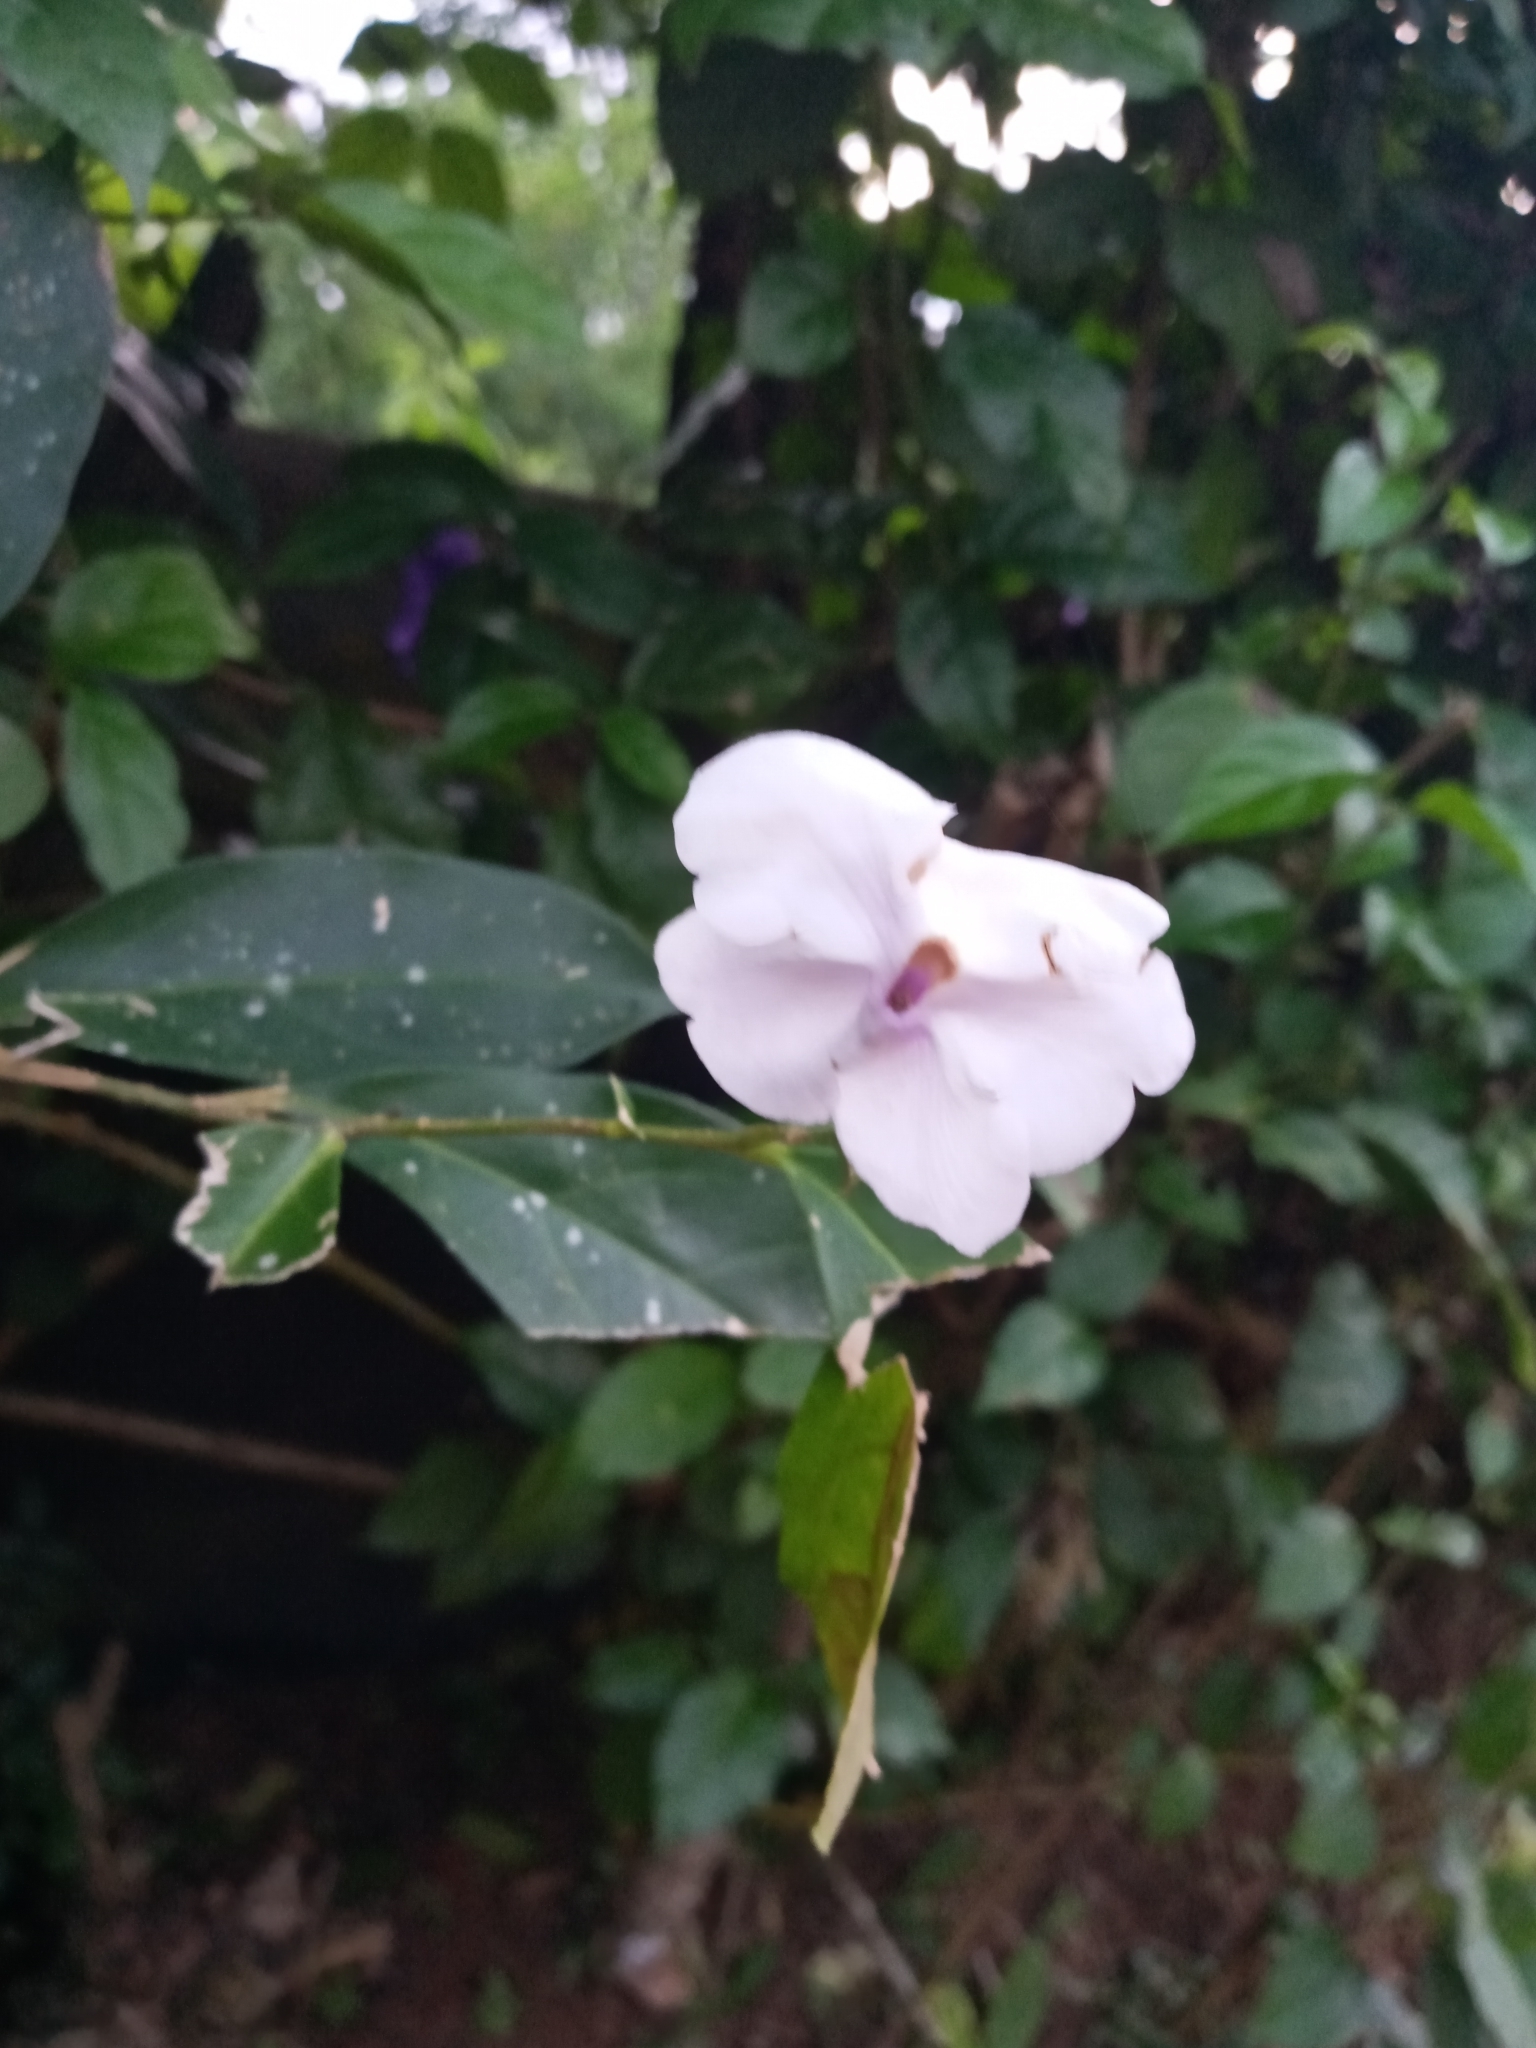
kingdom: Plantae
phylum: Tracheophyta
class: Magnoliopsida
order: Solanales
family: Solanaceae
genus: Brunfelsia
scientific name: Brunfelsia pauciflora
